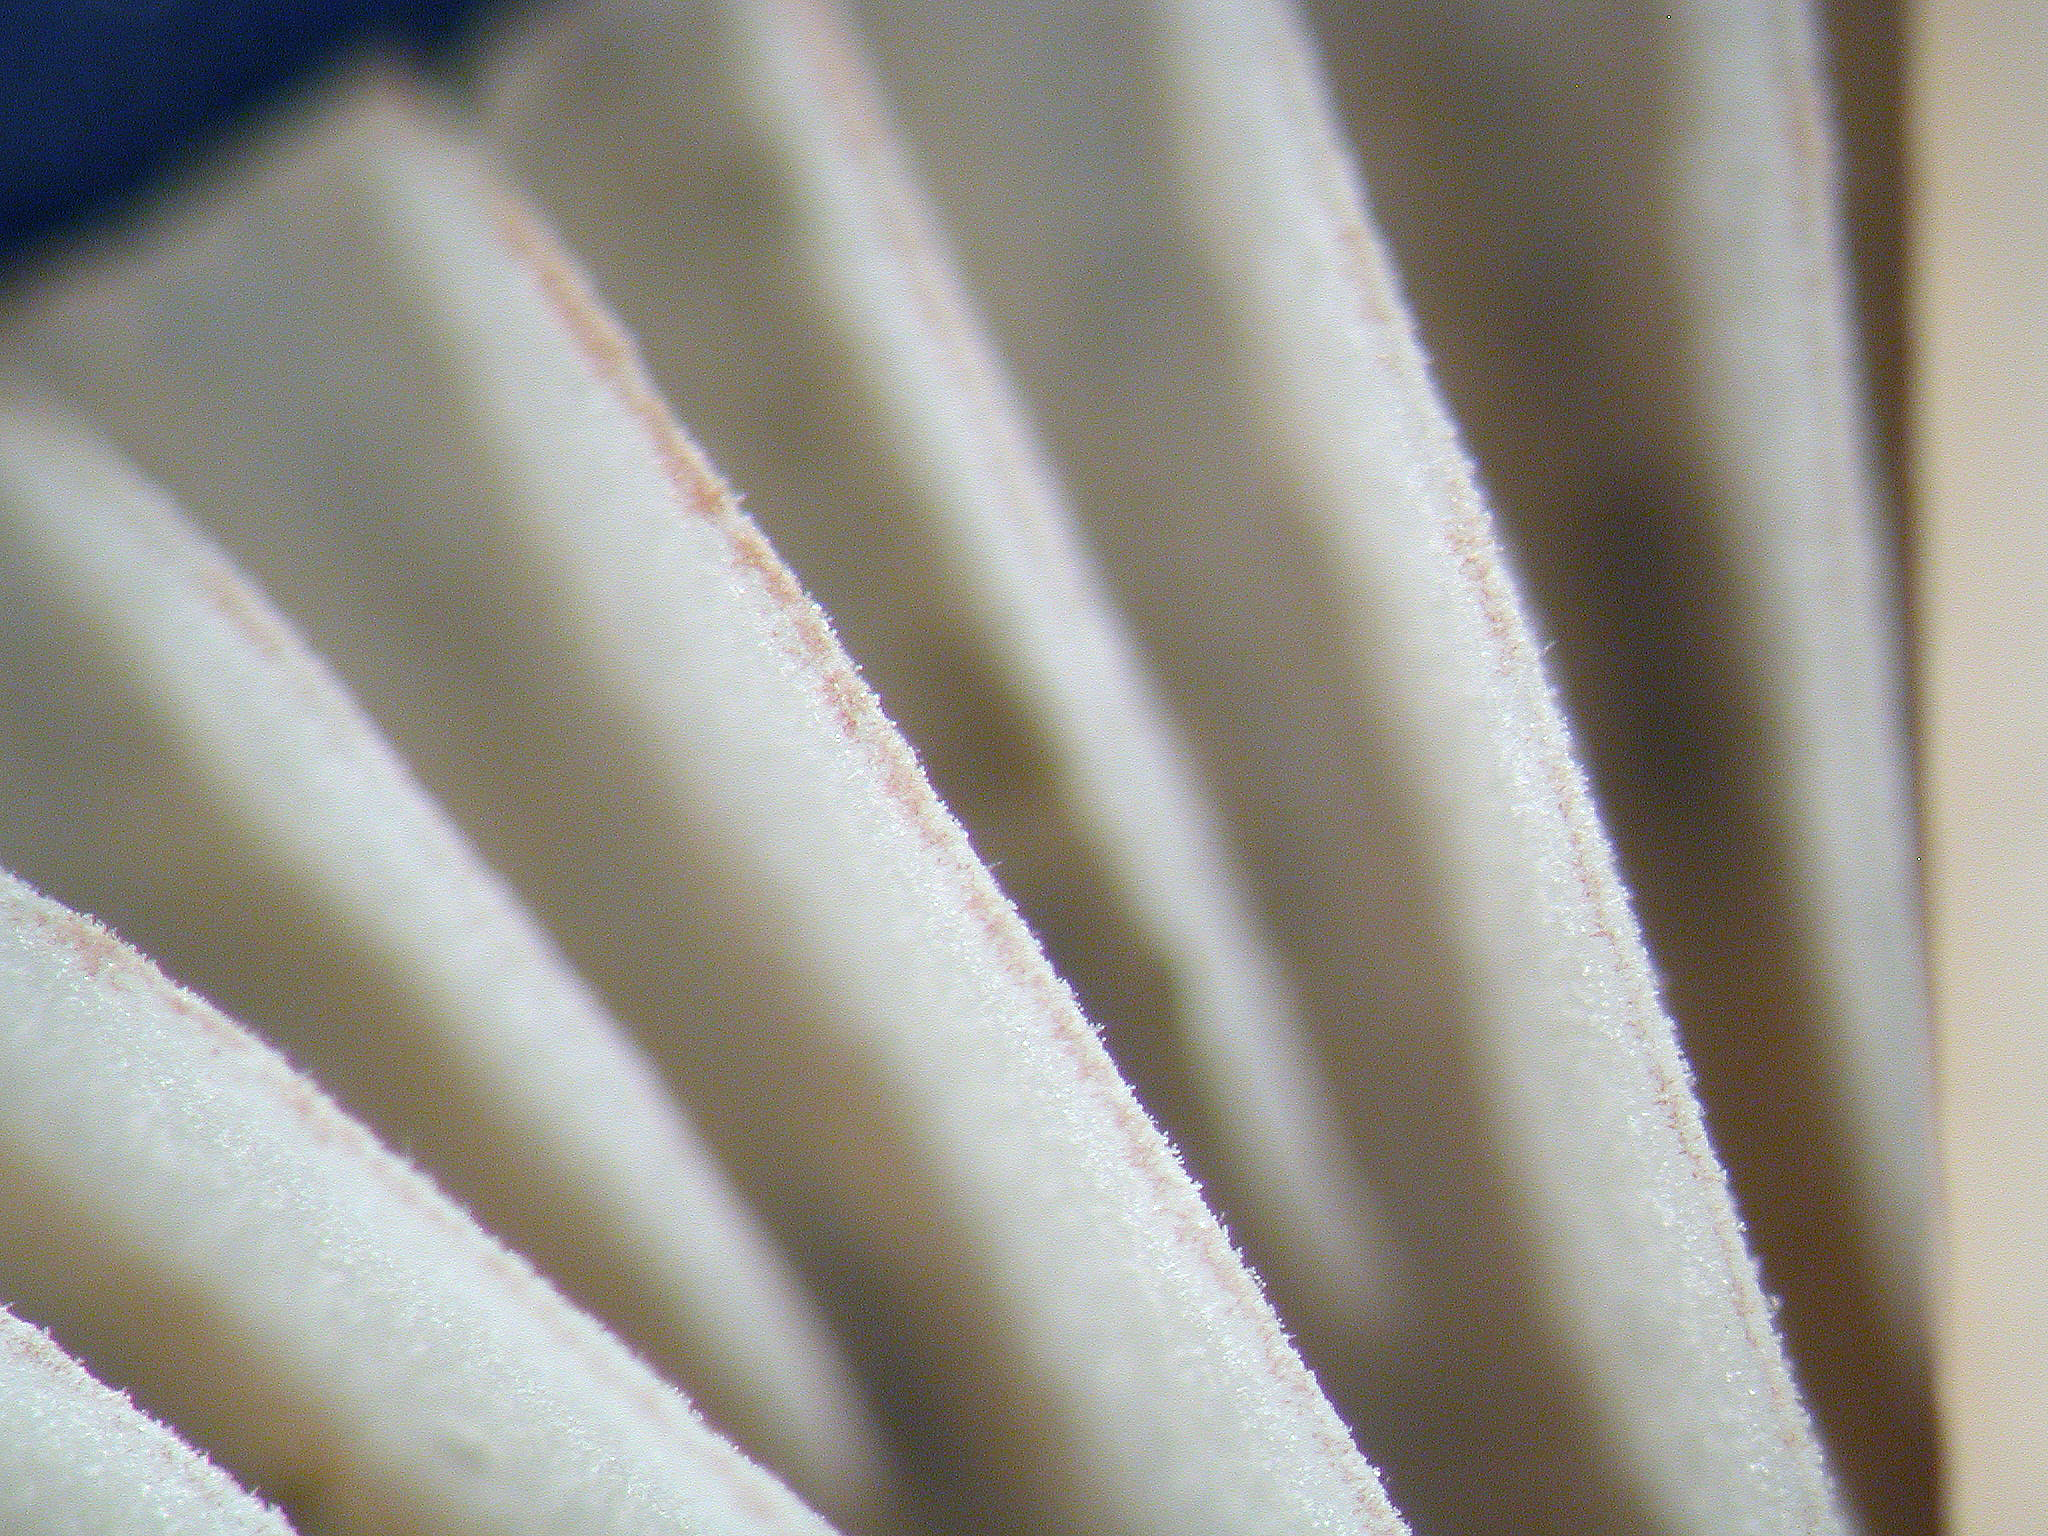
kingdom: Fungi
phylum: Basidiomycota
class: Agaricomycetes
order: Agaricales
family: Mycenaceae
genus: Mycena
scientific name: Mycena olivaceomarginata
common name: Brownedge bonnet
